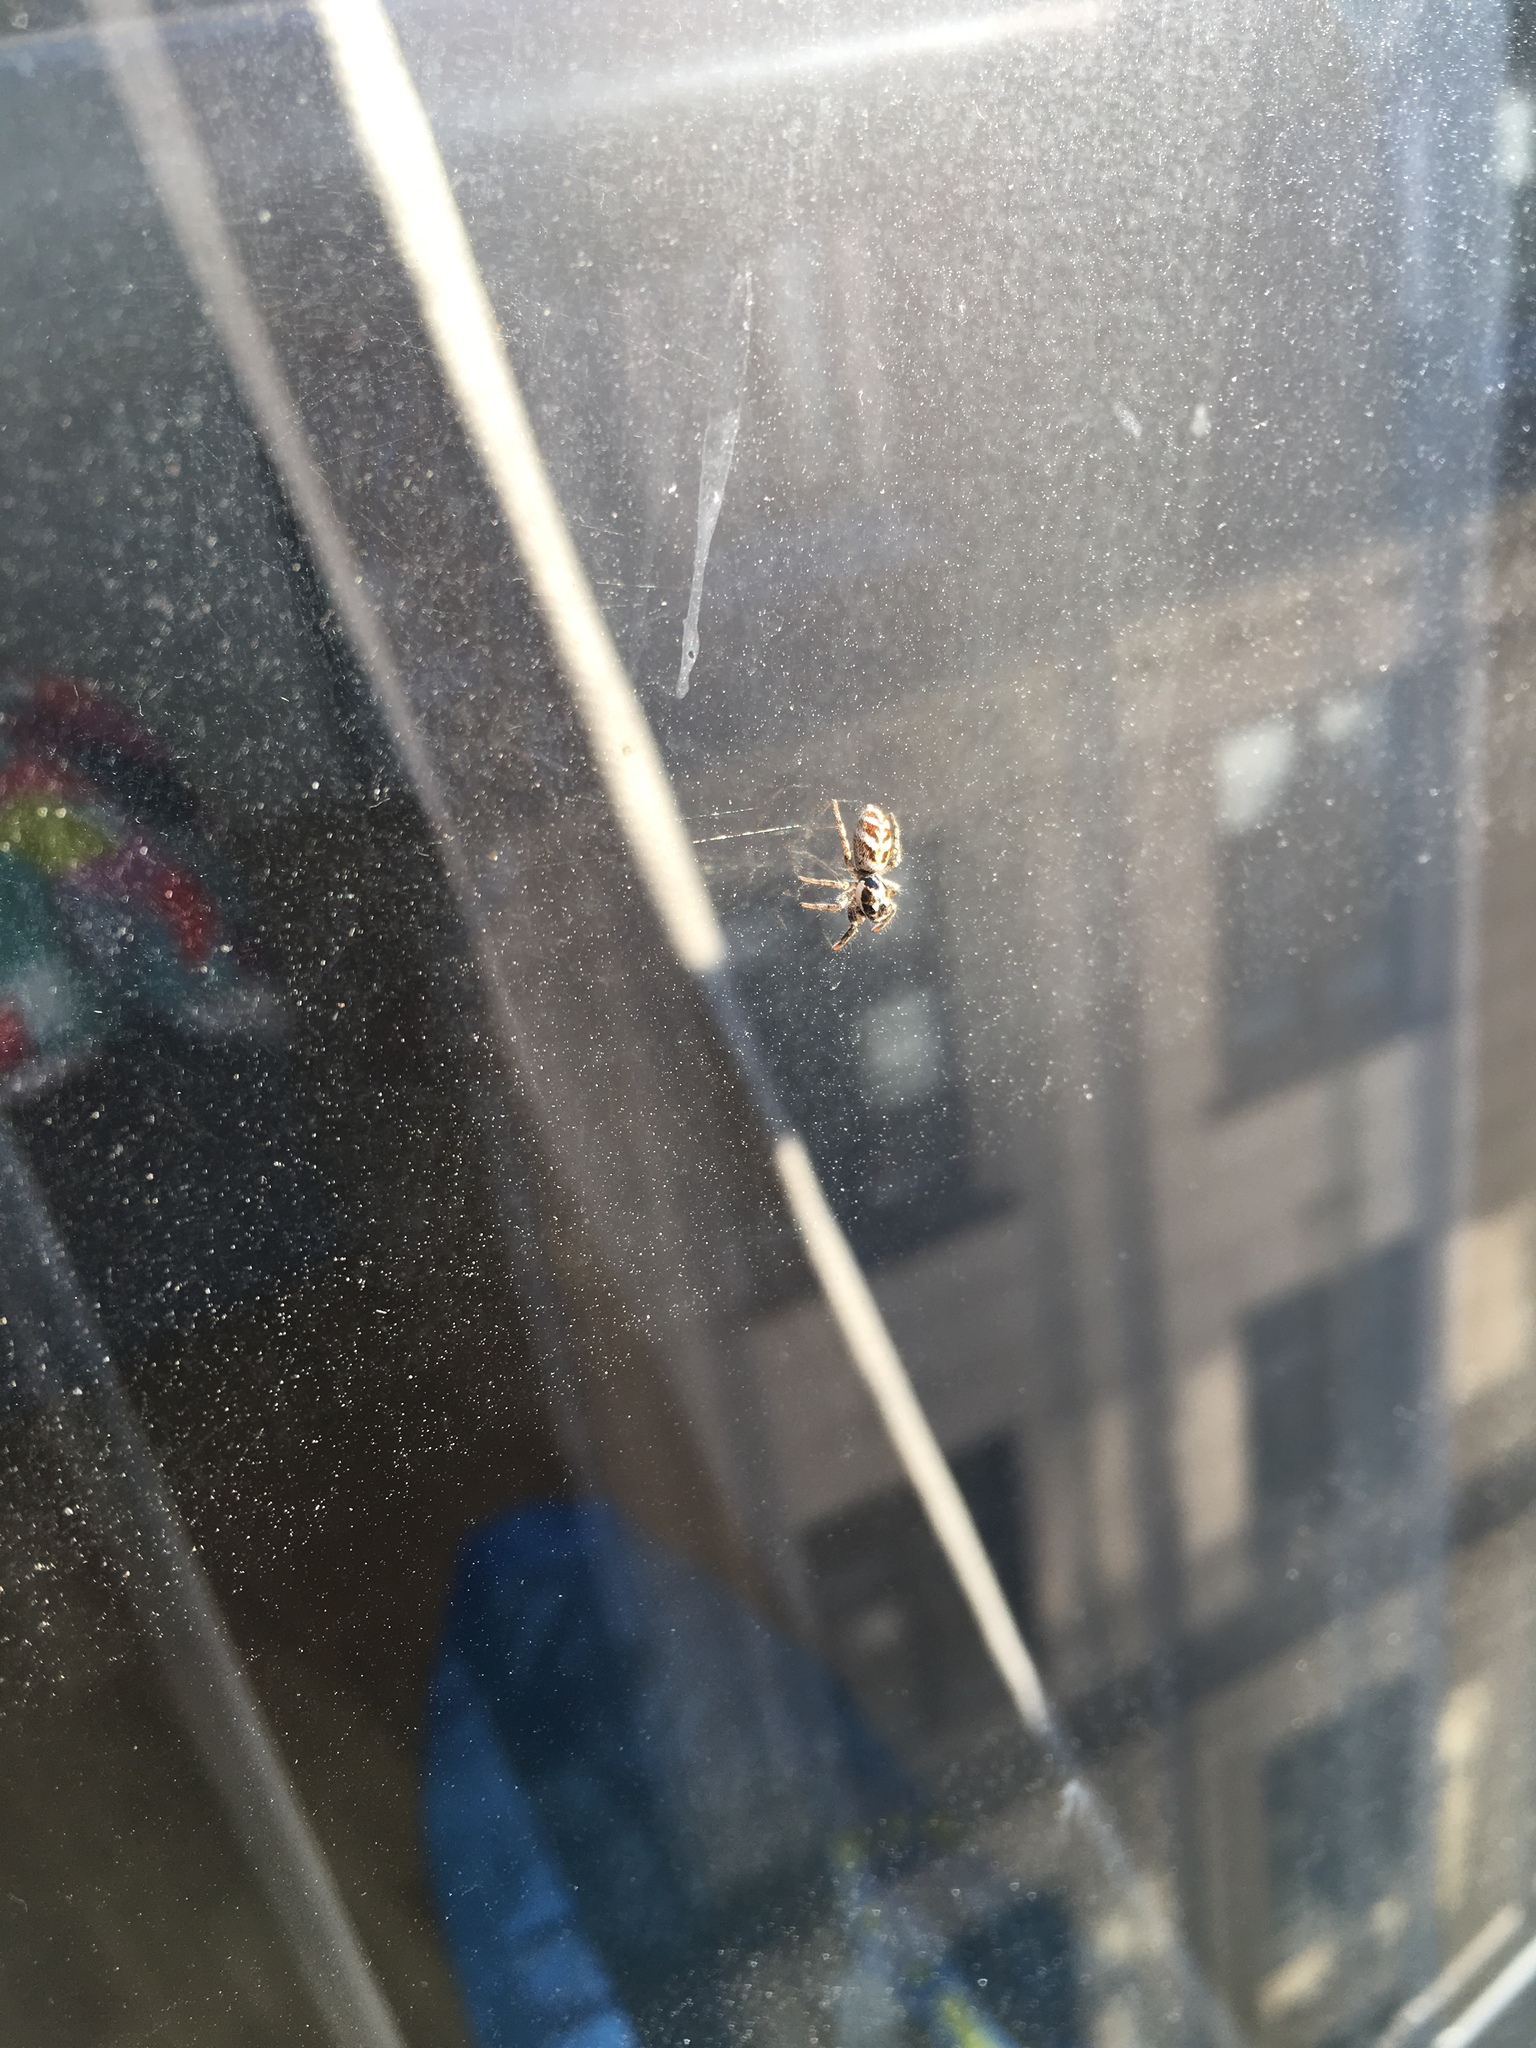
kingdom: Animalia
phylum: Arthropoda
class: Arachnida
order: Araneae
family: Salticidae
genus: Salticus
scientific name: Salticus scenicus
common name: Zebra jumper
